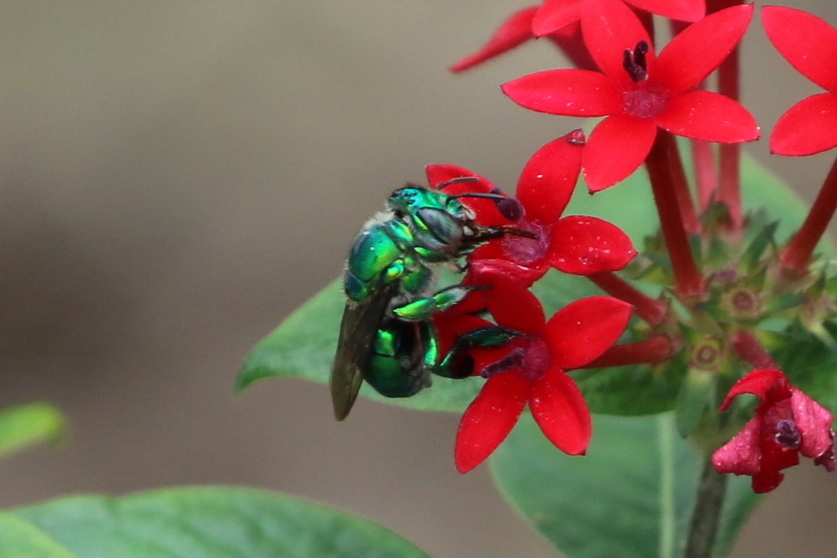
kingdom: Animalia
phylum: Arthropoda
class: Insecta
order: Hymenoptera
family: Apidae
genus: Euglossa
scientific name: Euglossa dilemma
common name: Green orchid bee
